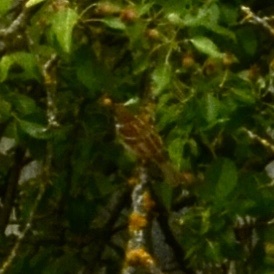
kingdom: Animalia
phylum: Chordata
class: Aves
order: Passeriformes
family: Passeridae
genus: Passer
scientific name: Passer domesticus
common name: House sparrow
